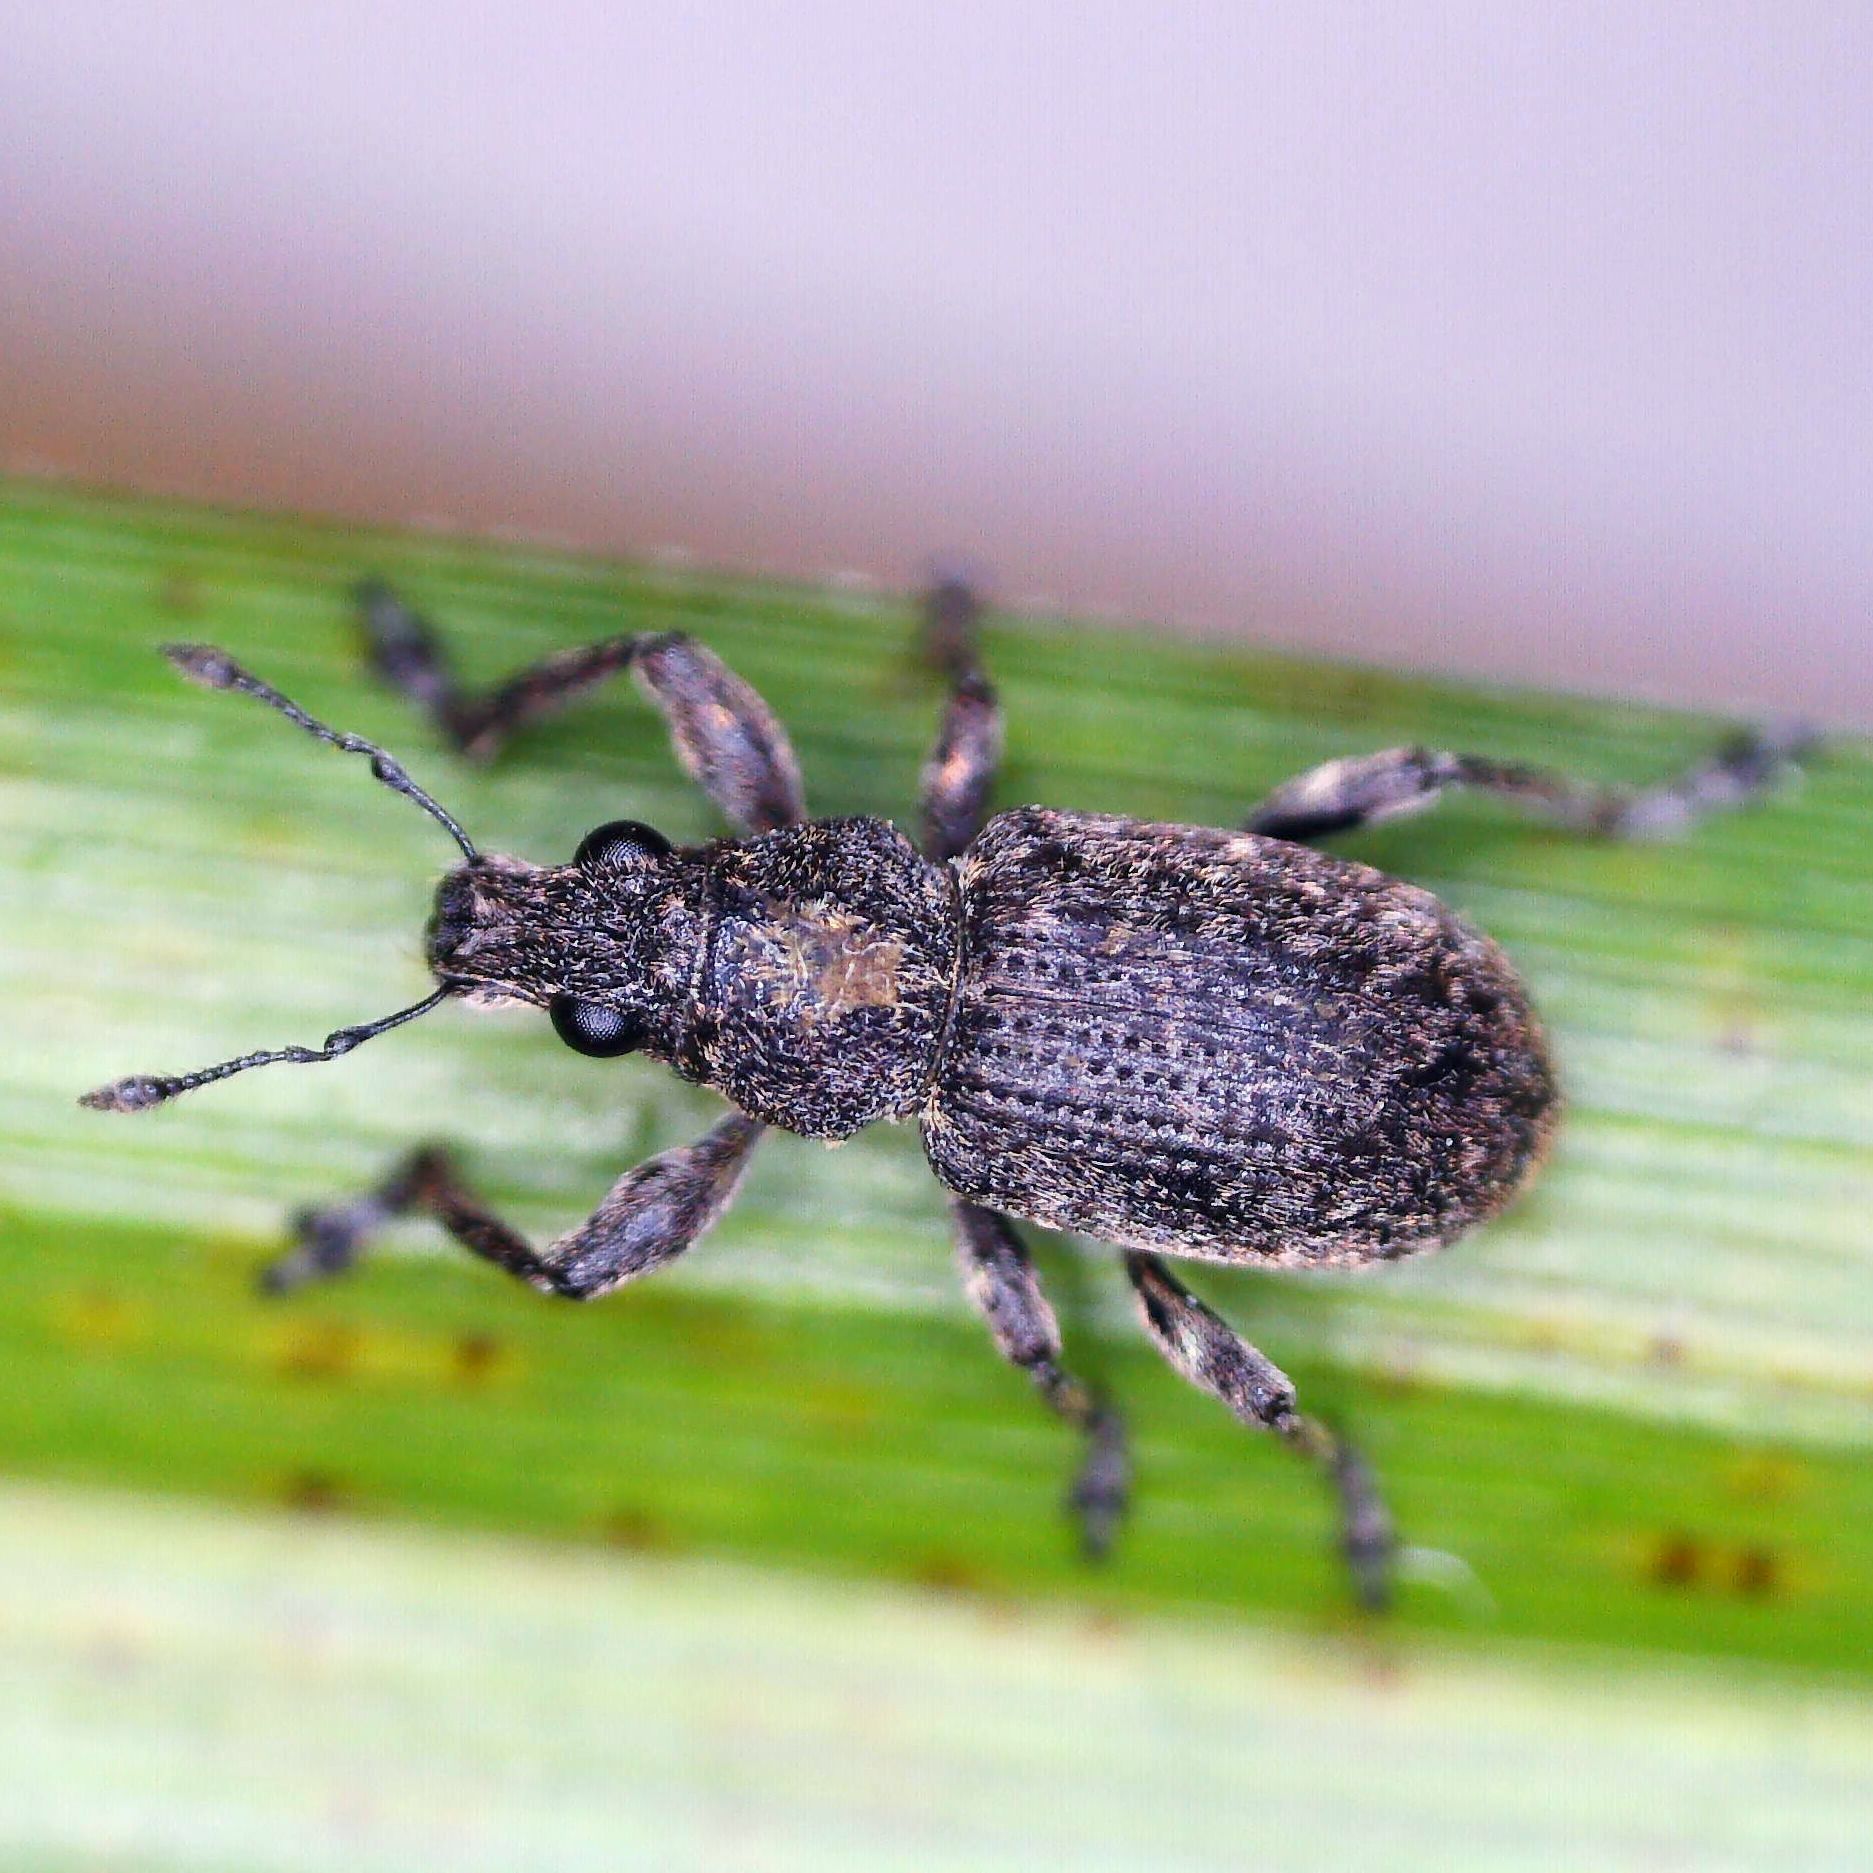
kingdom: Animalia
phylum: Arthropoda
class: Insecta
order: Coleoptera
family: Curculionidae
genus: Coelositona
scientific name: Coelositona cambricus
